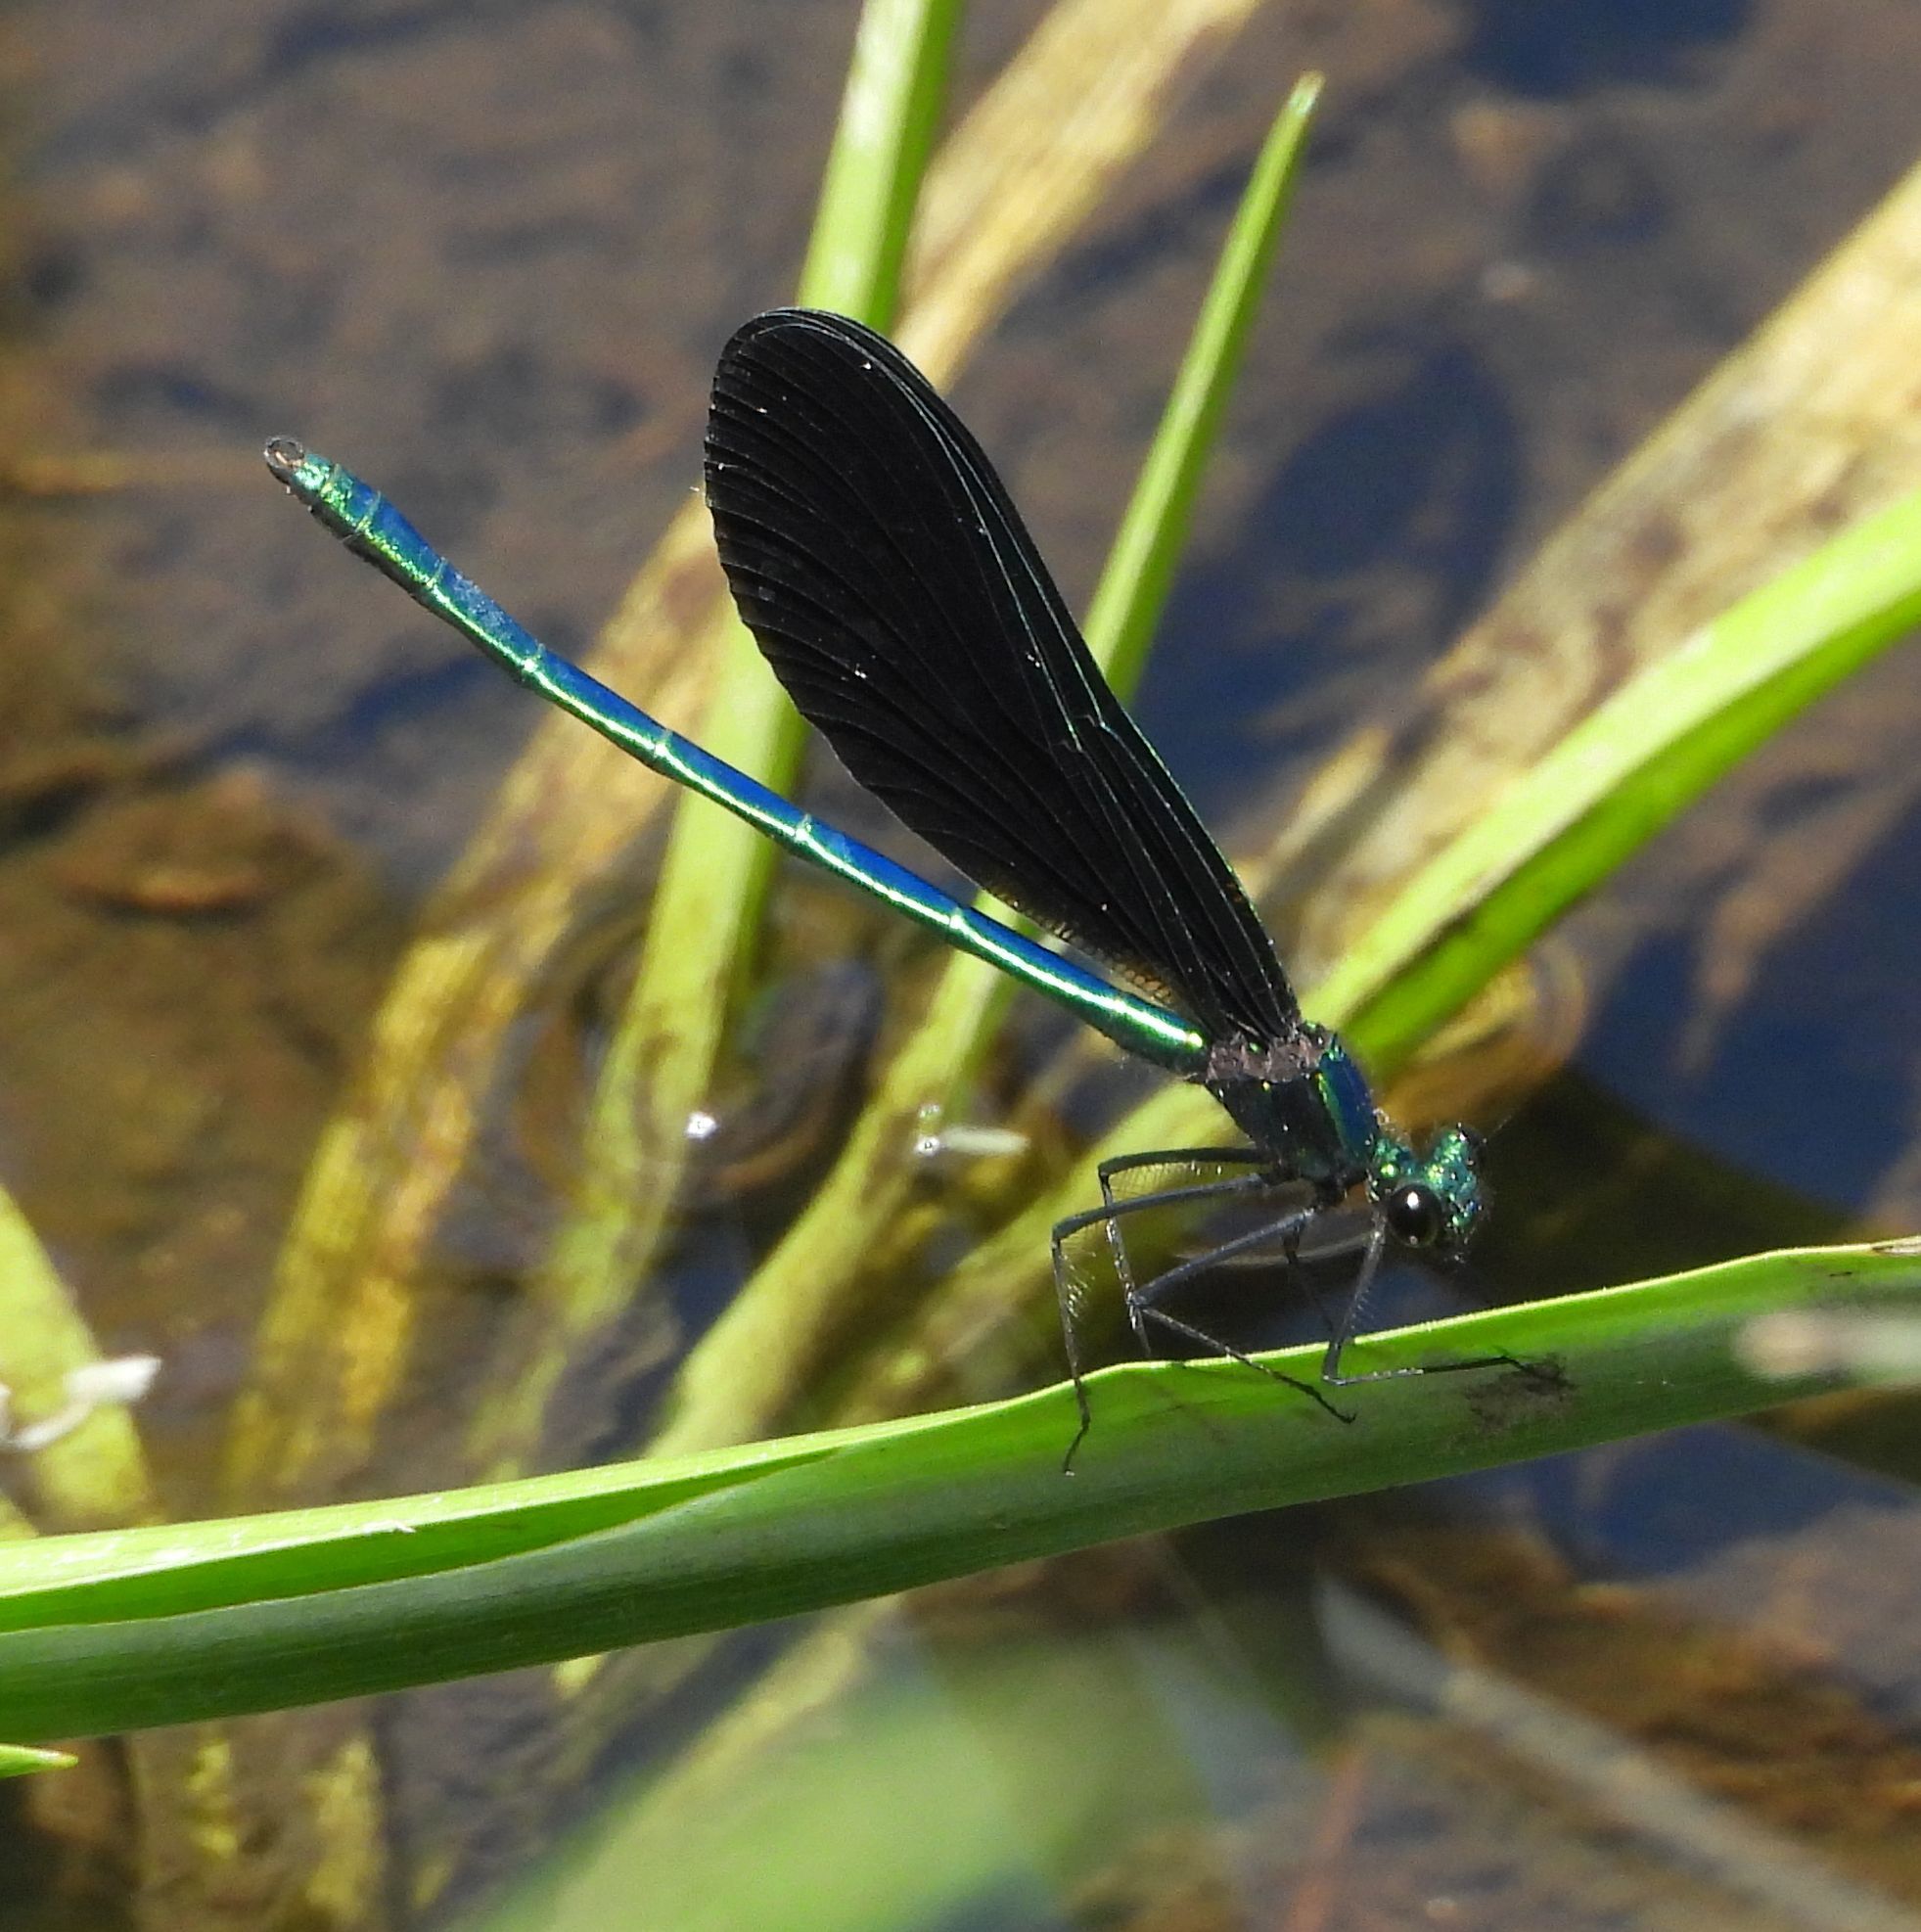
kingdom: Animalia
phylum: Arthropoda
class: Insecta
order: Odonata
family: Calopterygidae
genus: Calopteryx
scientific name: Calopteryx maculata
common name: Ebony jewelwing
